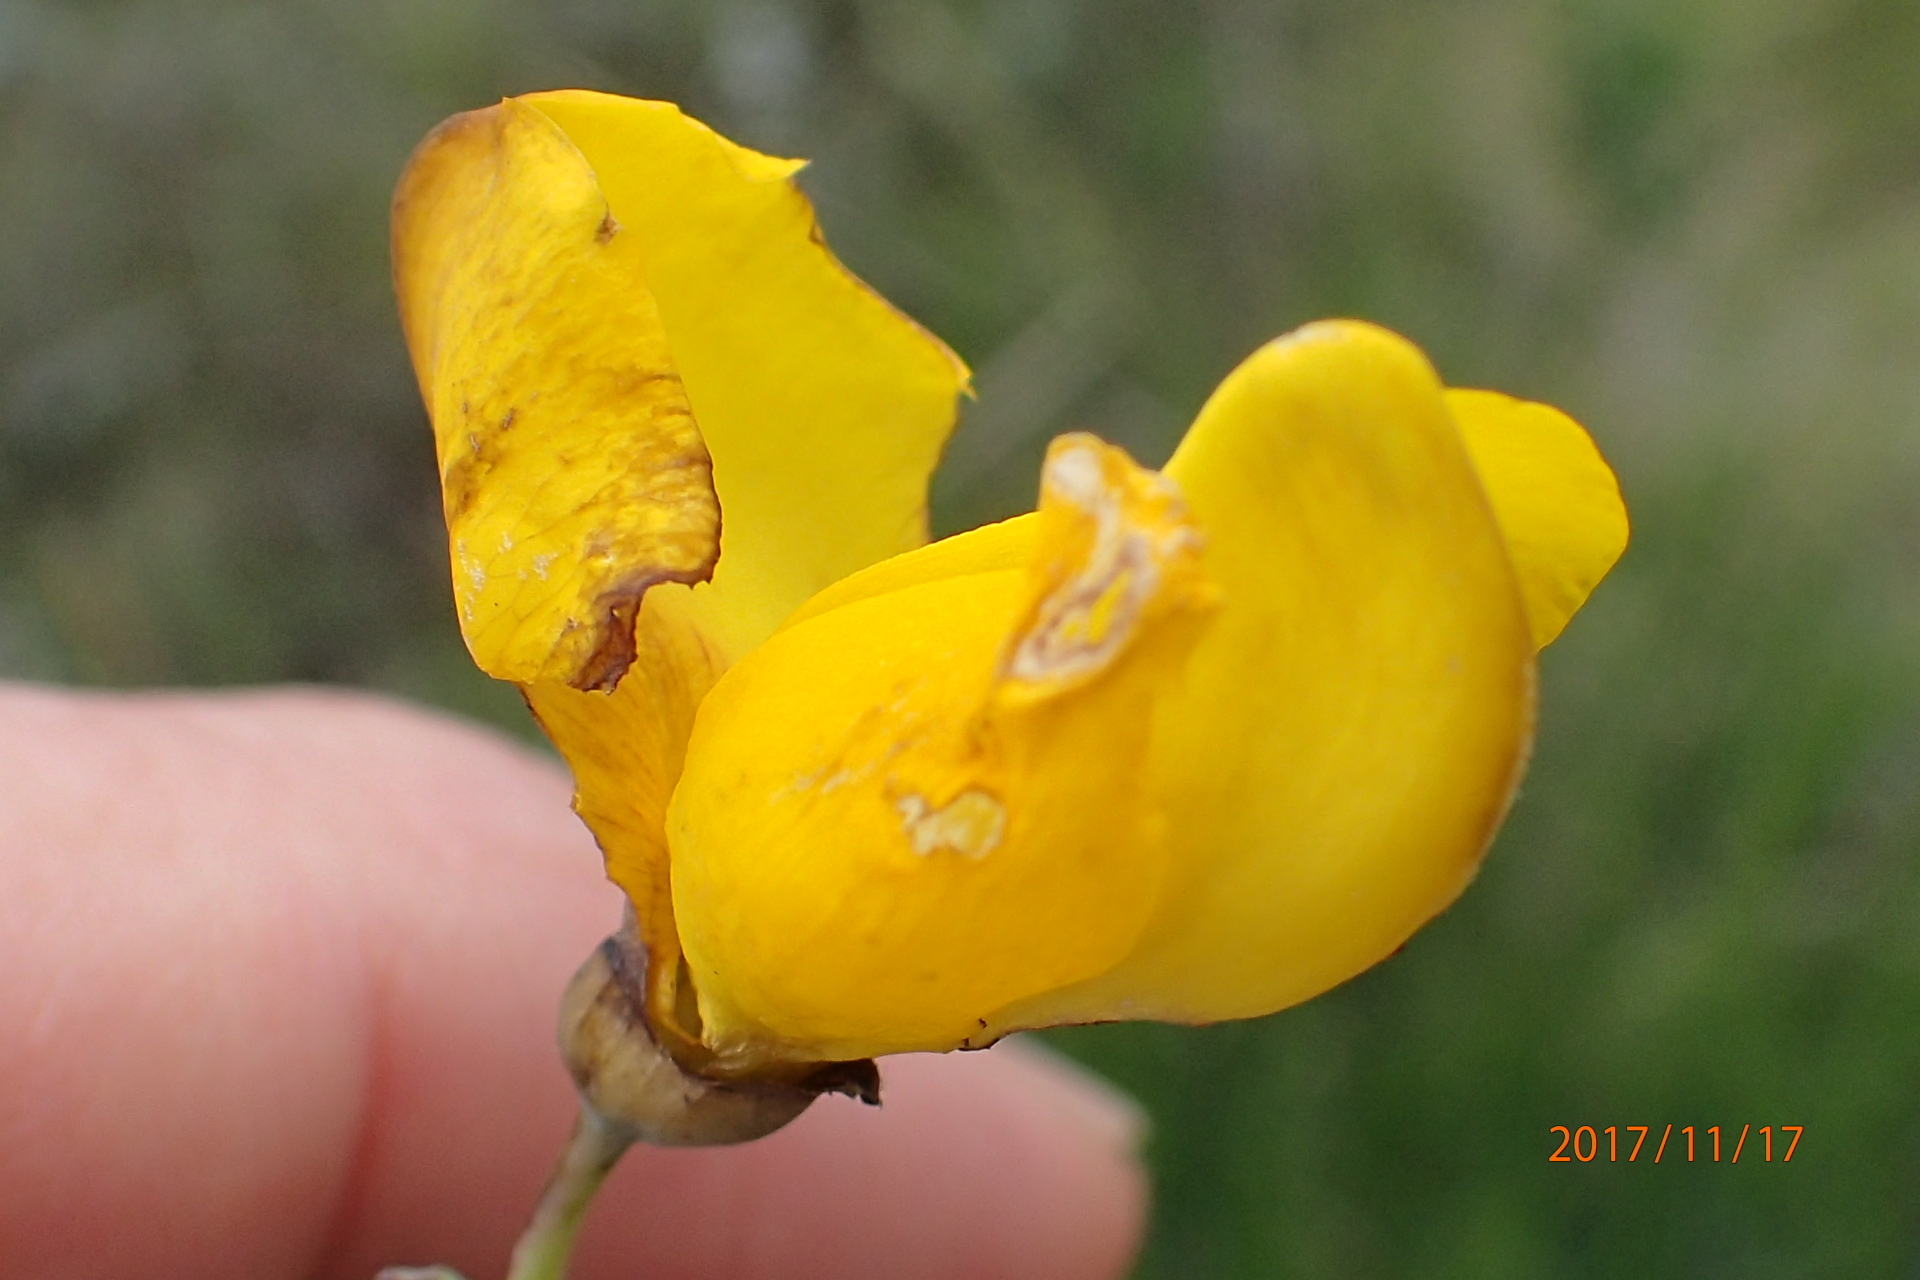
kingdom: Plantae
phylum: Tracheophyta
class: Magnoliopsida
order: Fabales
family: Fabaceae
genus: Melolobium
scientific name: Melolobium alpinum
